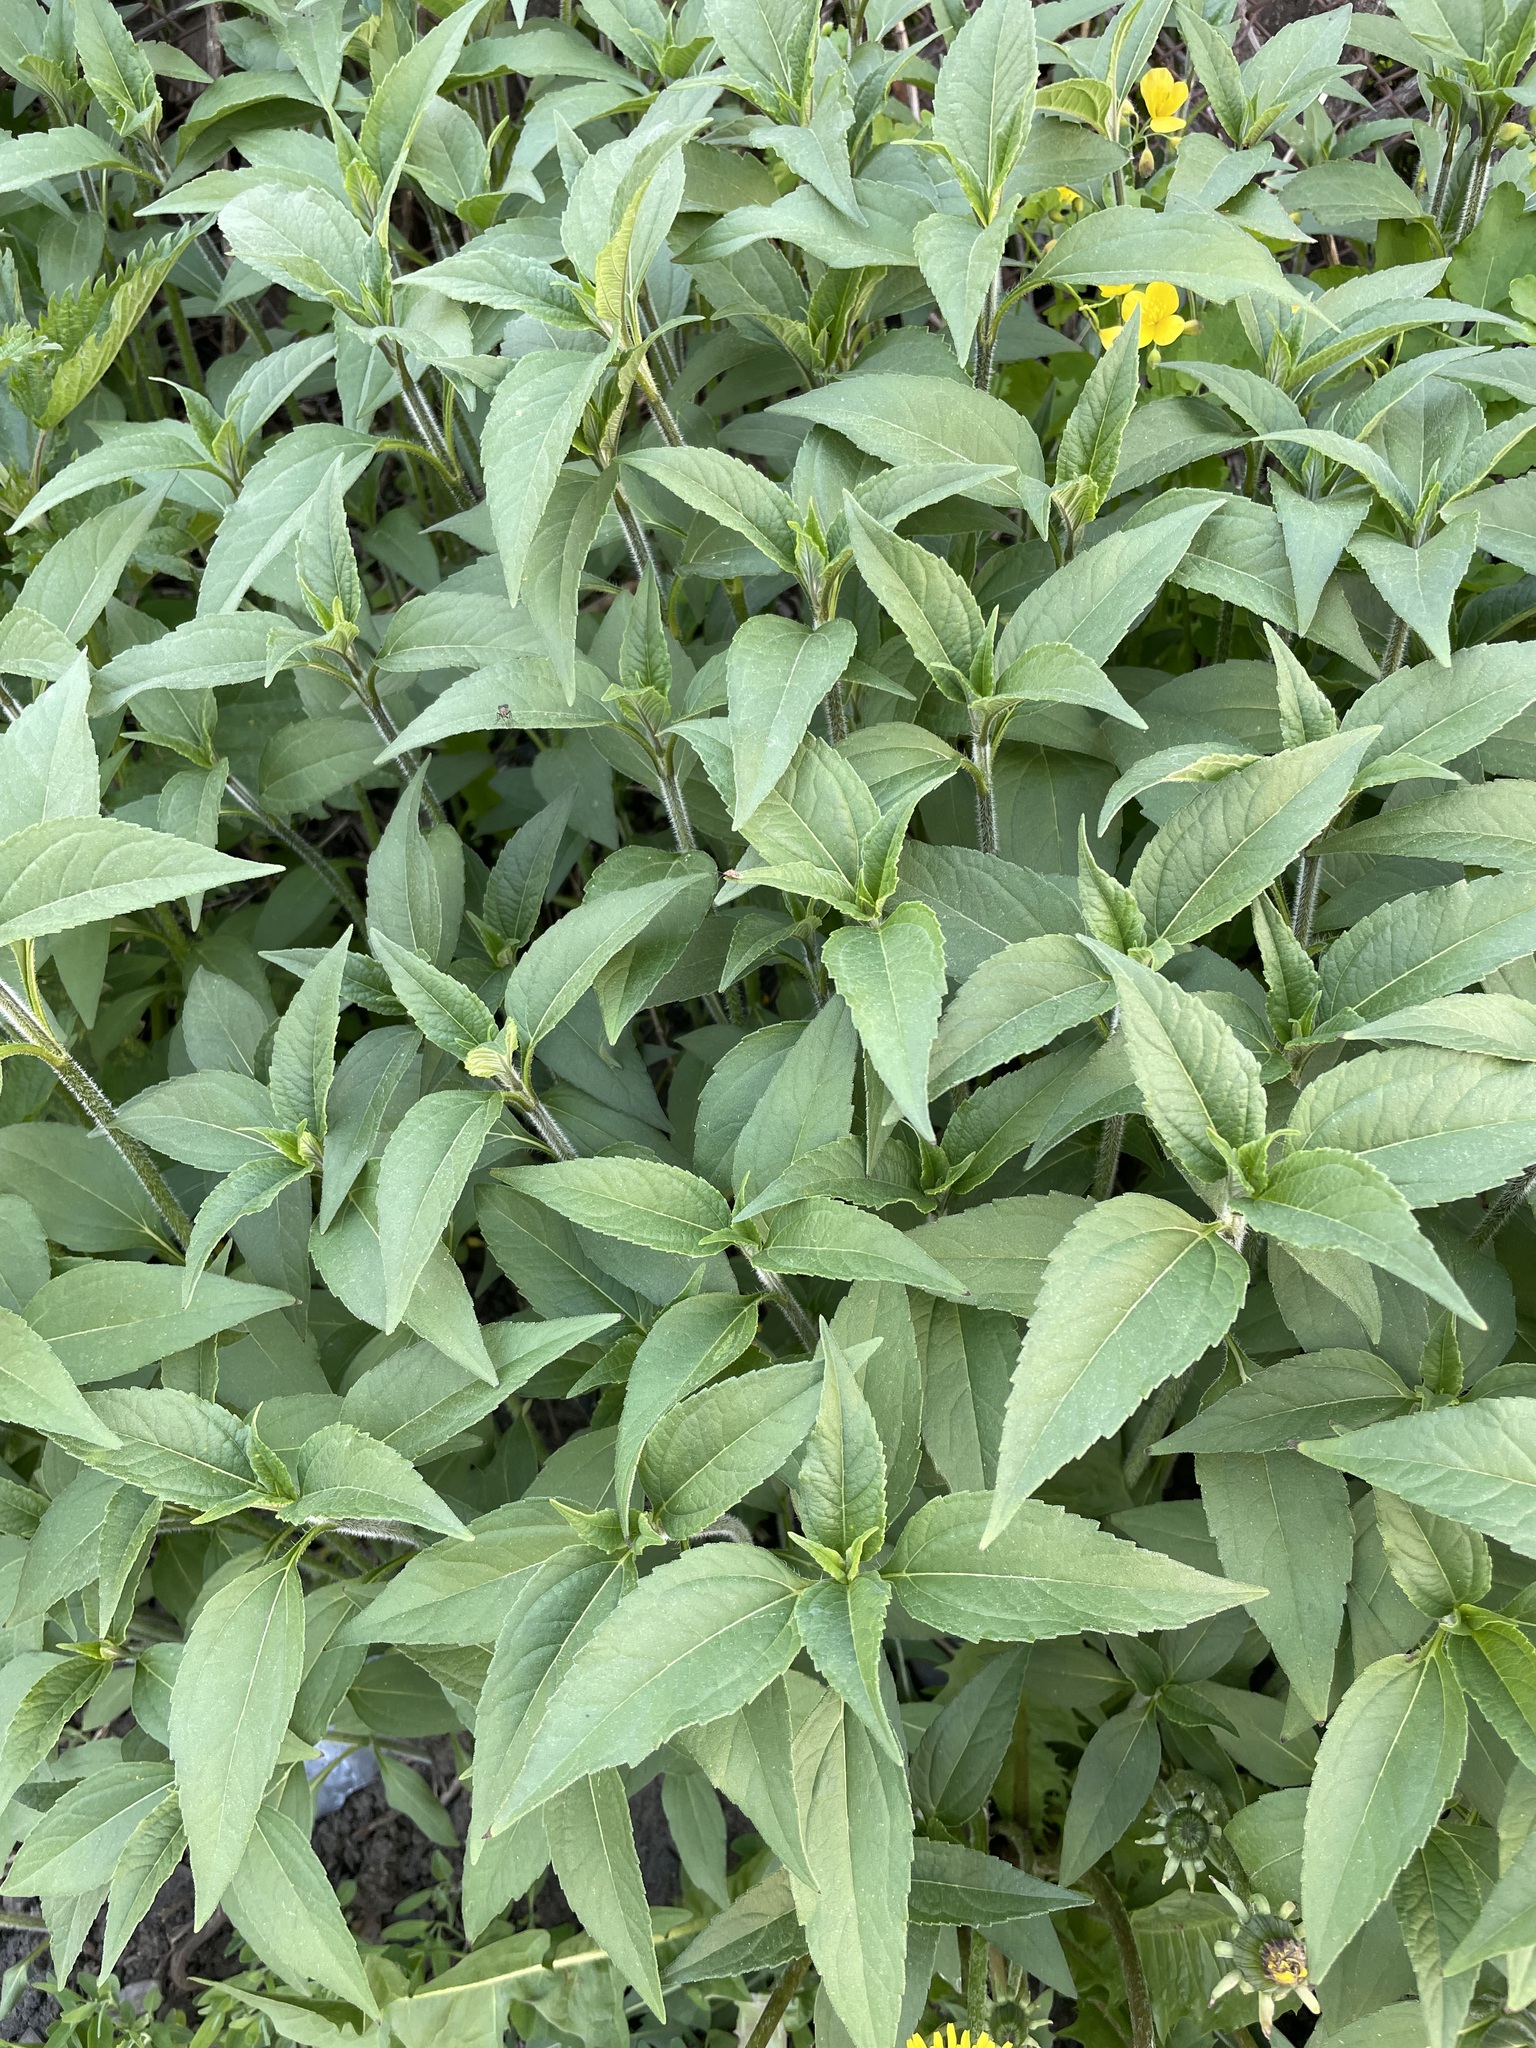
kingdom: Plantae
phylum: Tracheophyta
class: Magnoliopsida
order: Asterales
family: Asteraceae
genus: Helianthus
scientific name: Helianthus tuberosus
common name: Jerusalem artichoke
